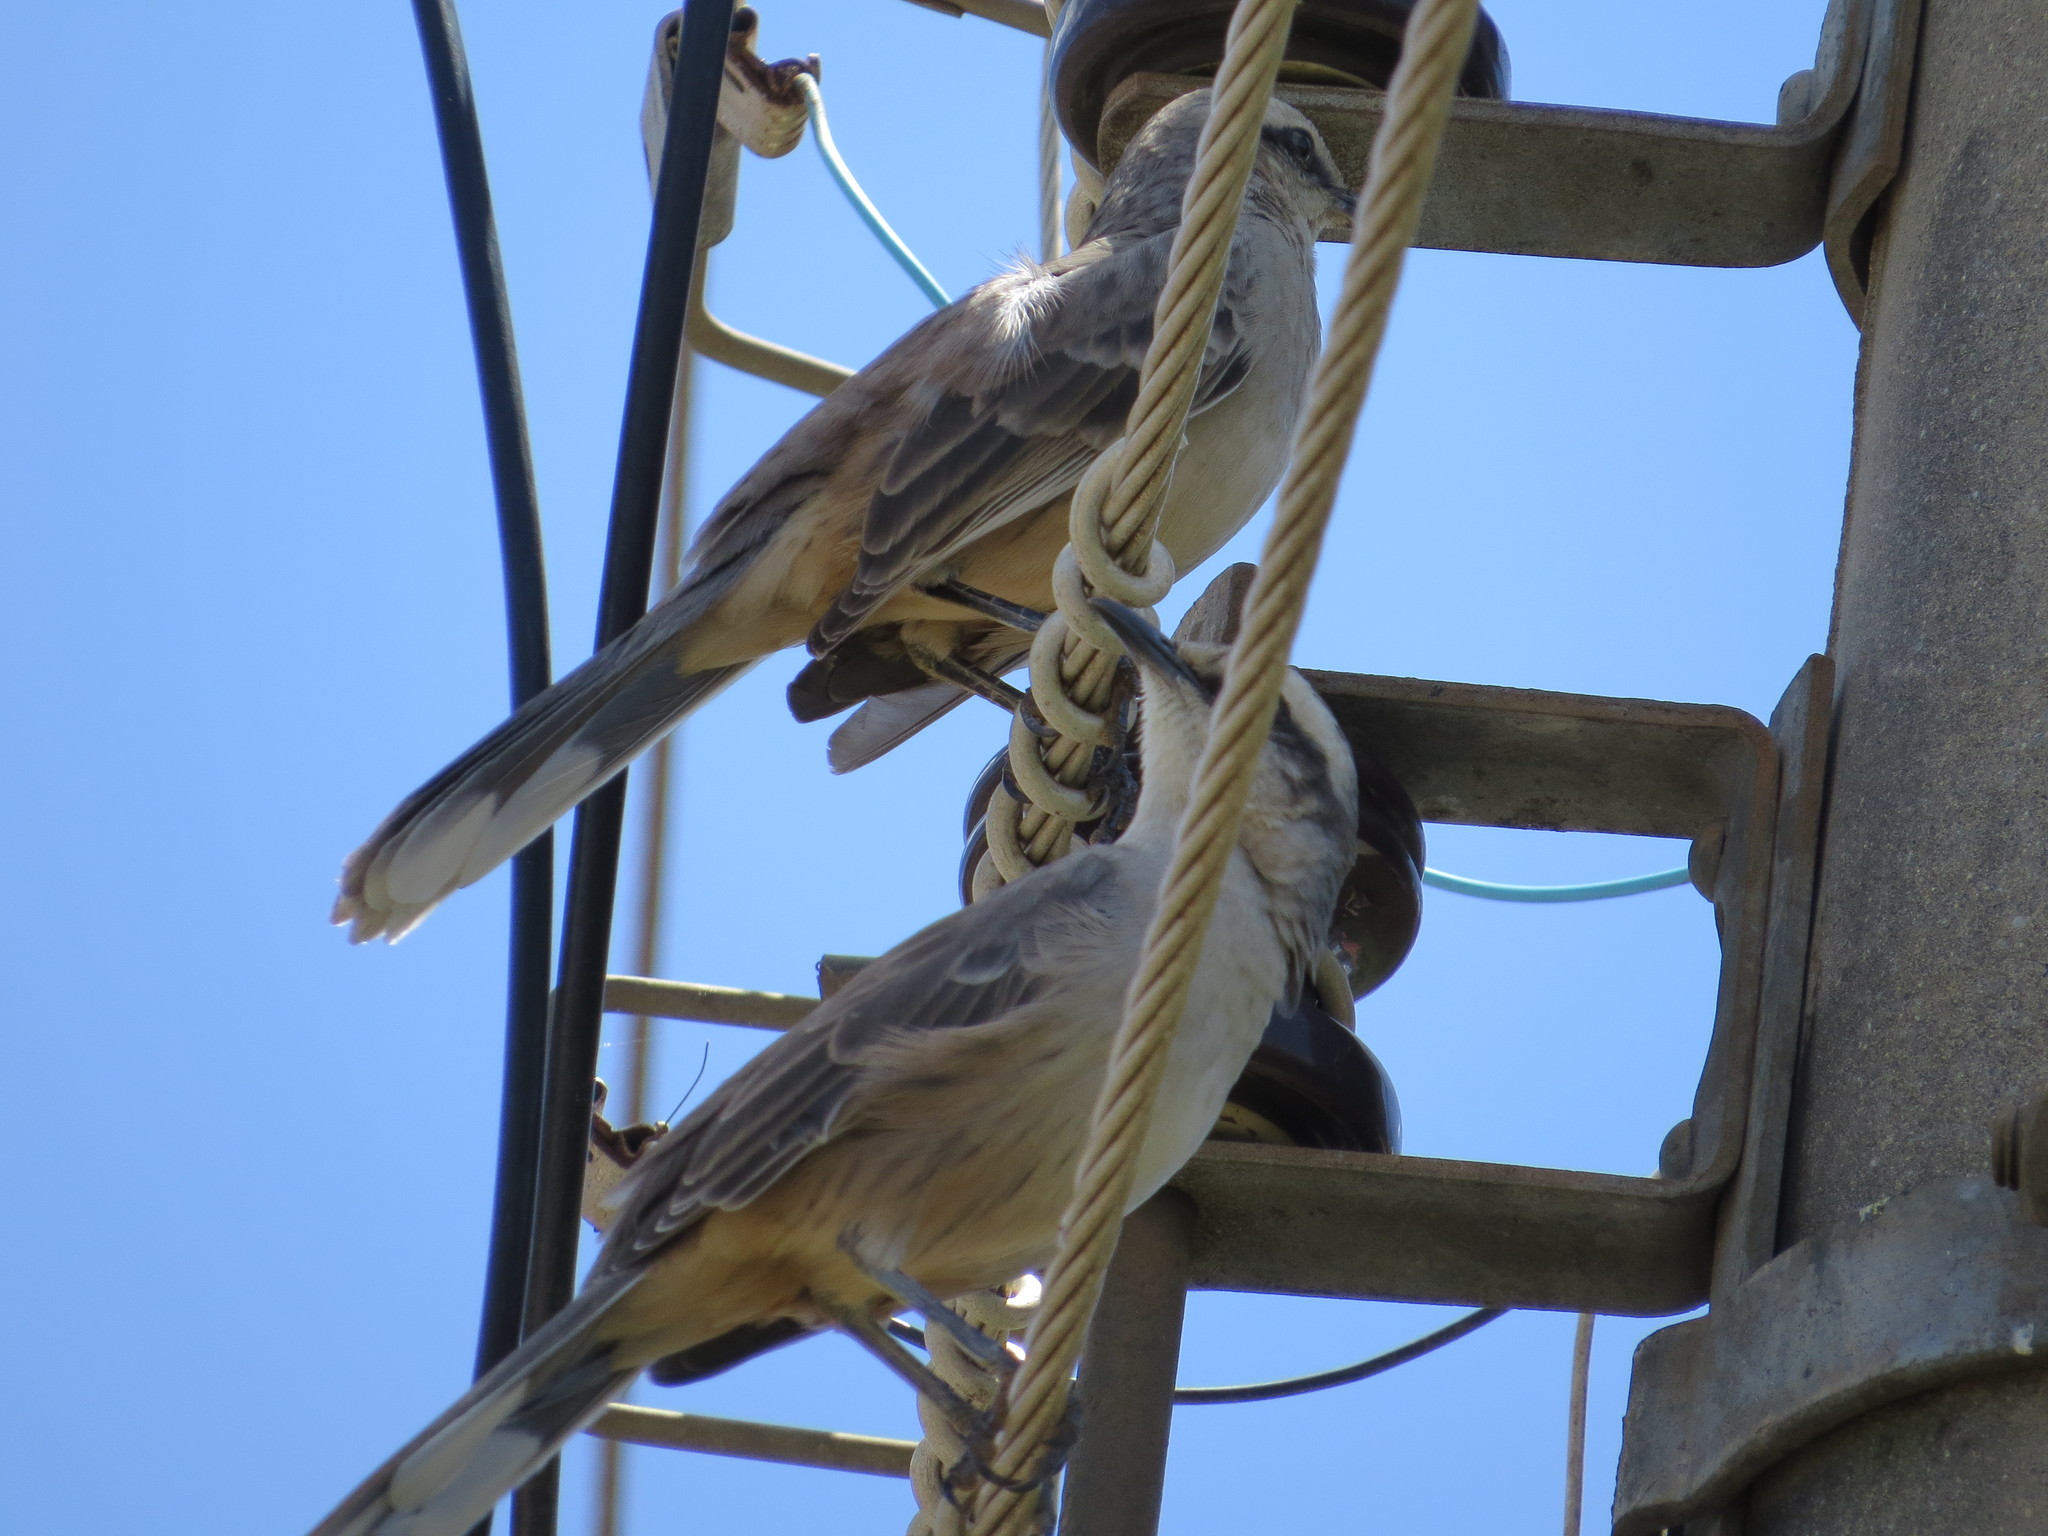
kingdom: Animalia
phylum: Chordata
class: Aves
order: Passeriformes
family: Mimidae
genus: Mimus
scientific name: Mimus saturninus
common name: Chalk-browed mockingbird
